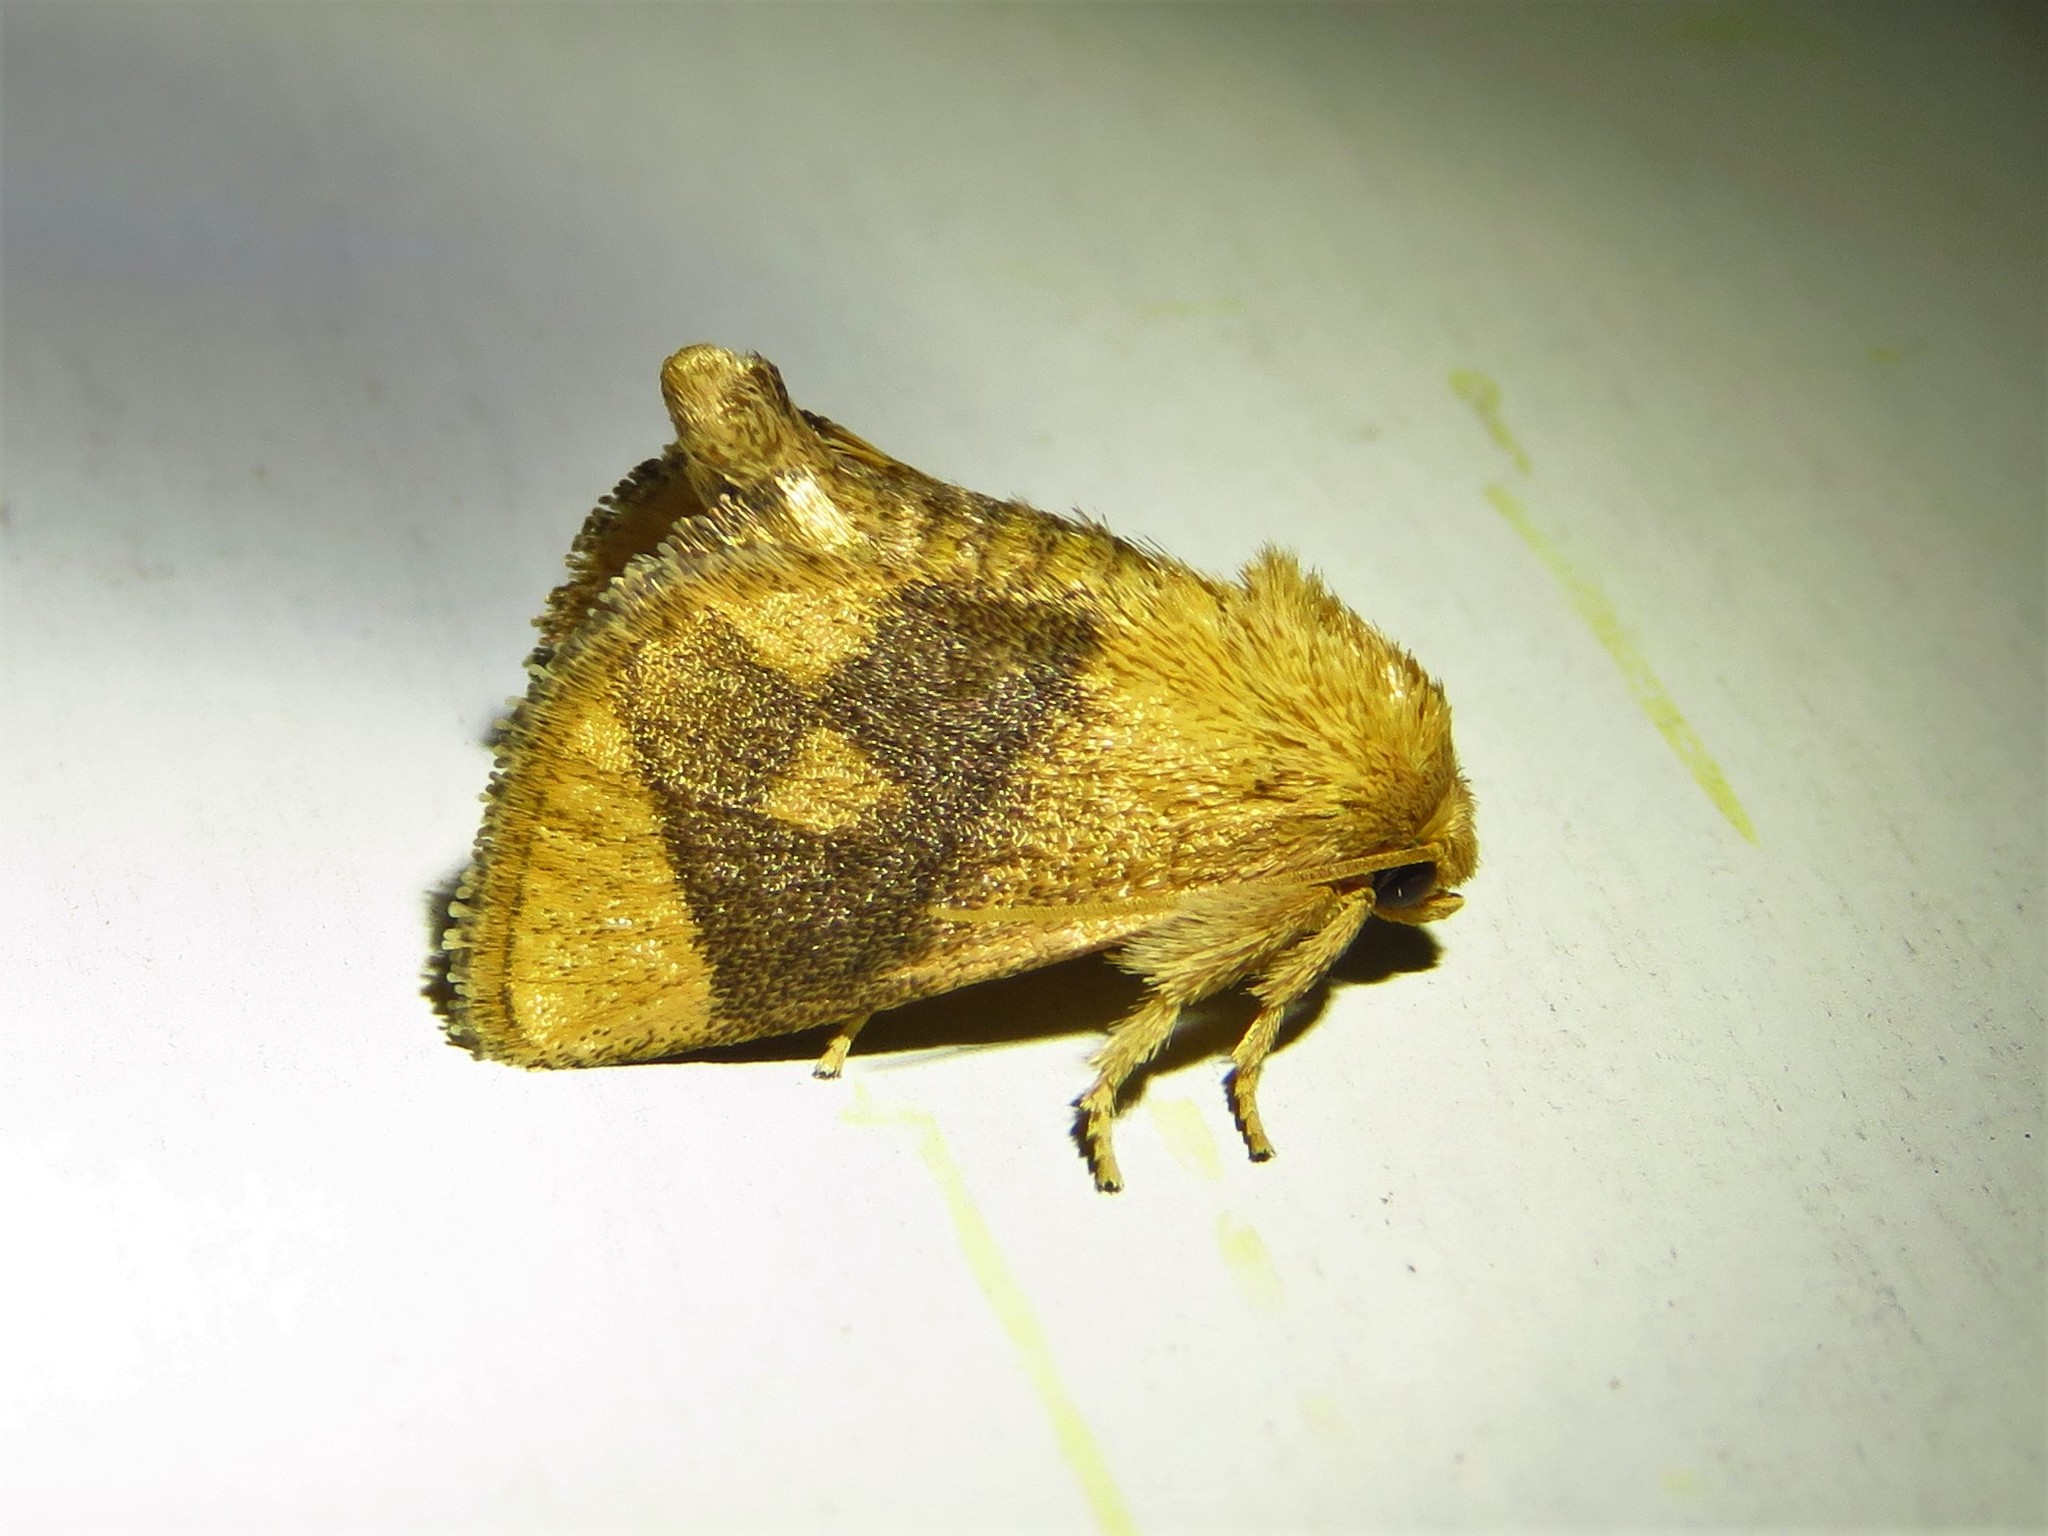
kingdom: Animalia
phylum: Arthropoda
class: Insecta
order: Lepidoptera
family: Limacodidae
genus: Apoda
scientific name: Apoda y-inversa
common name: Yellow-collared slug moth
